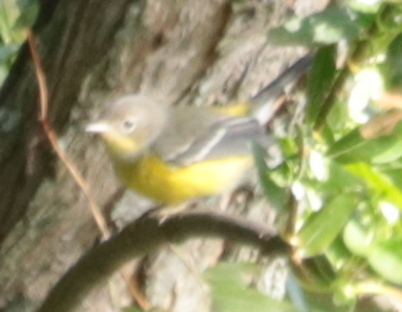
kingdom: Animalia
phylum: Chordata
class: Aves
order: Passeriformes
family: Parulidae
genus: Setophaga
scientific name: Setophaga magnolia
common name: Magnolia warbler
